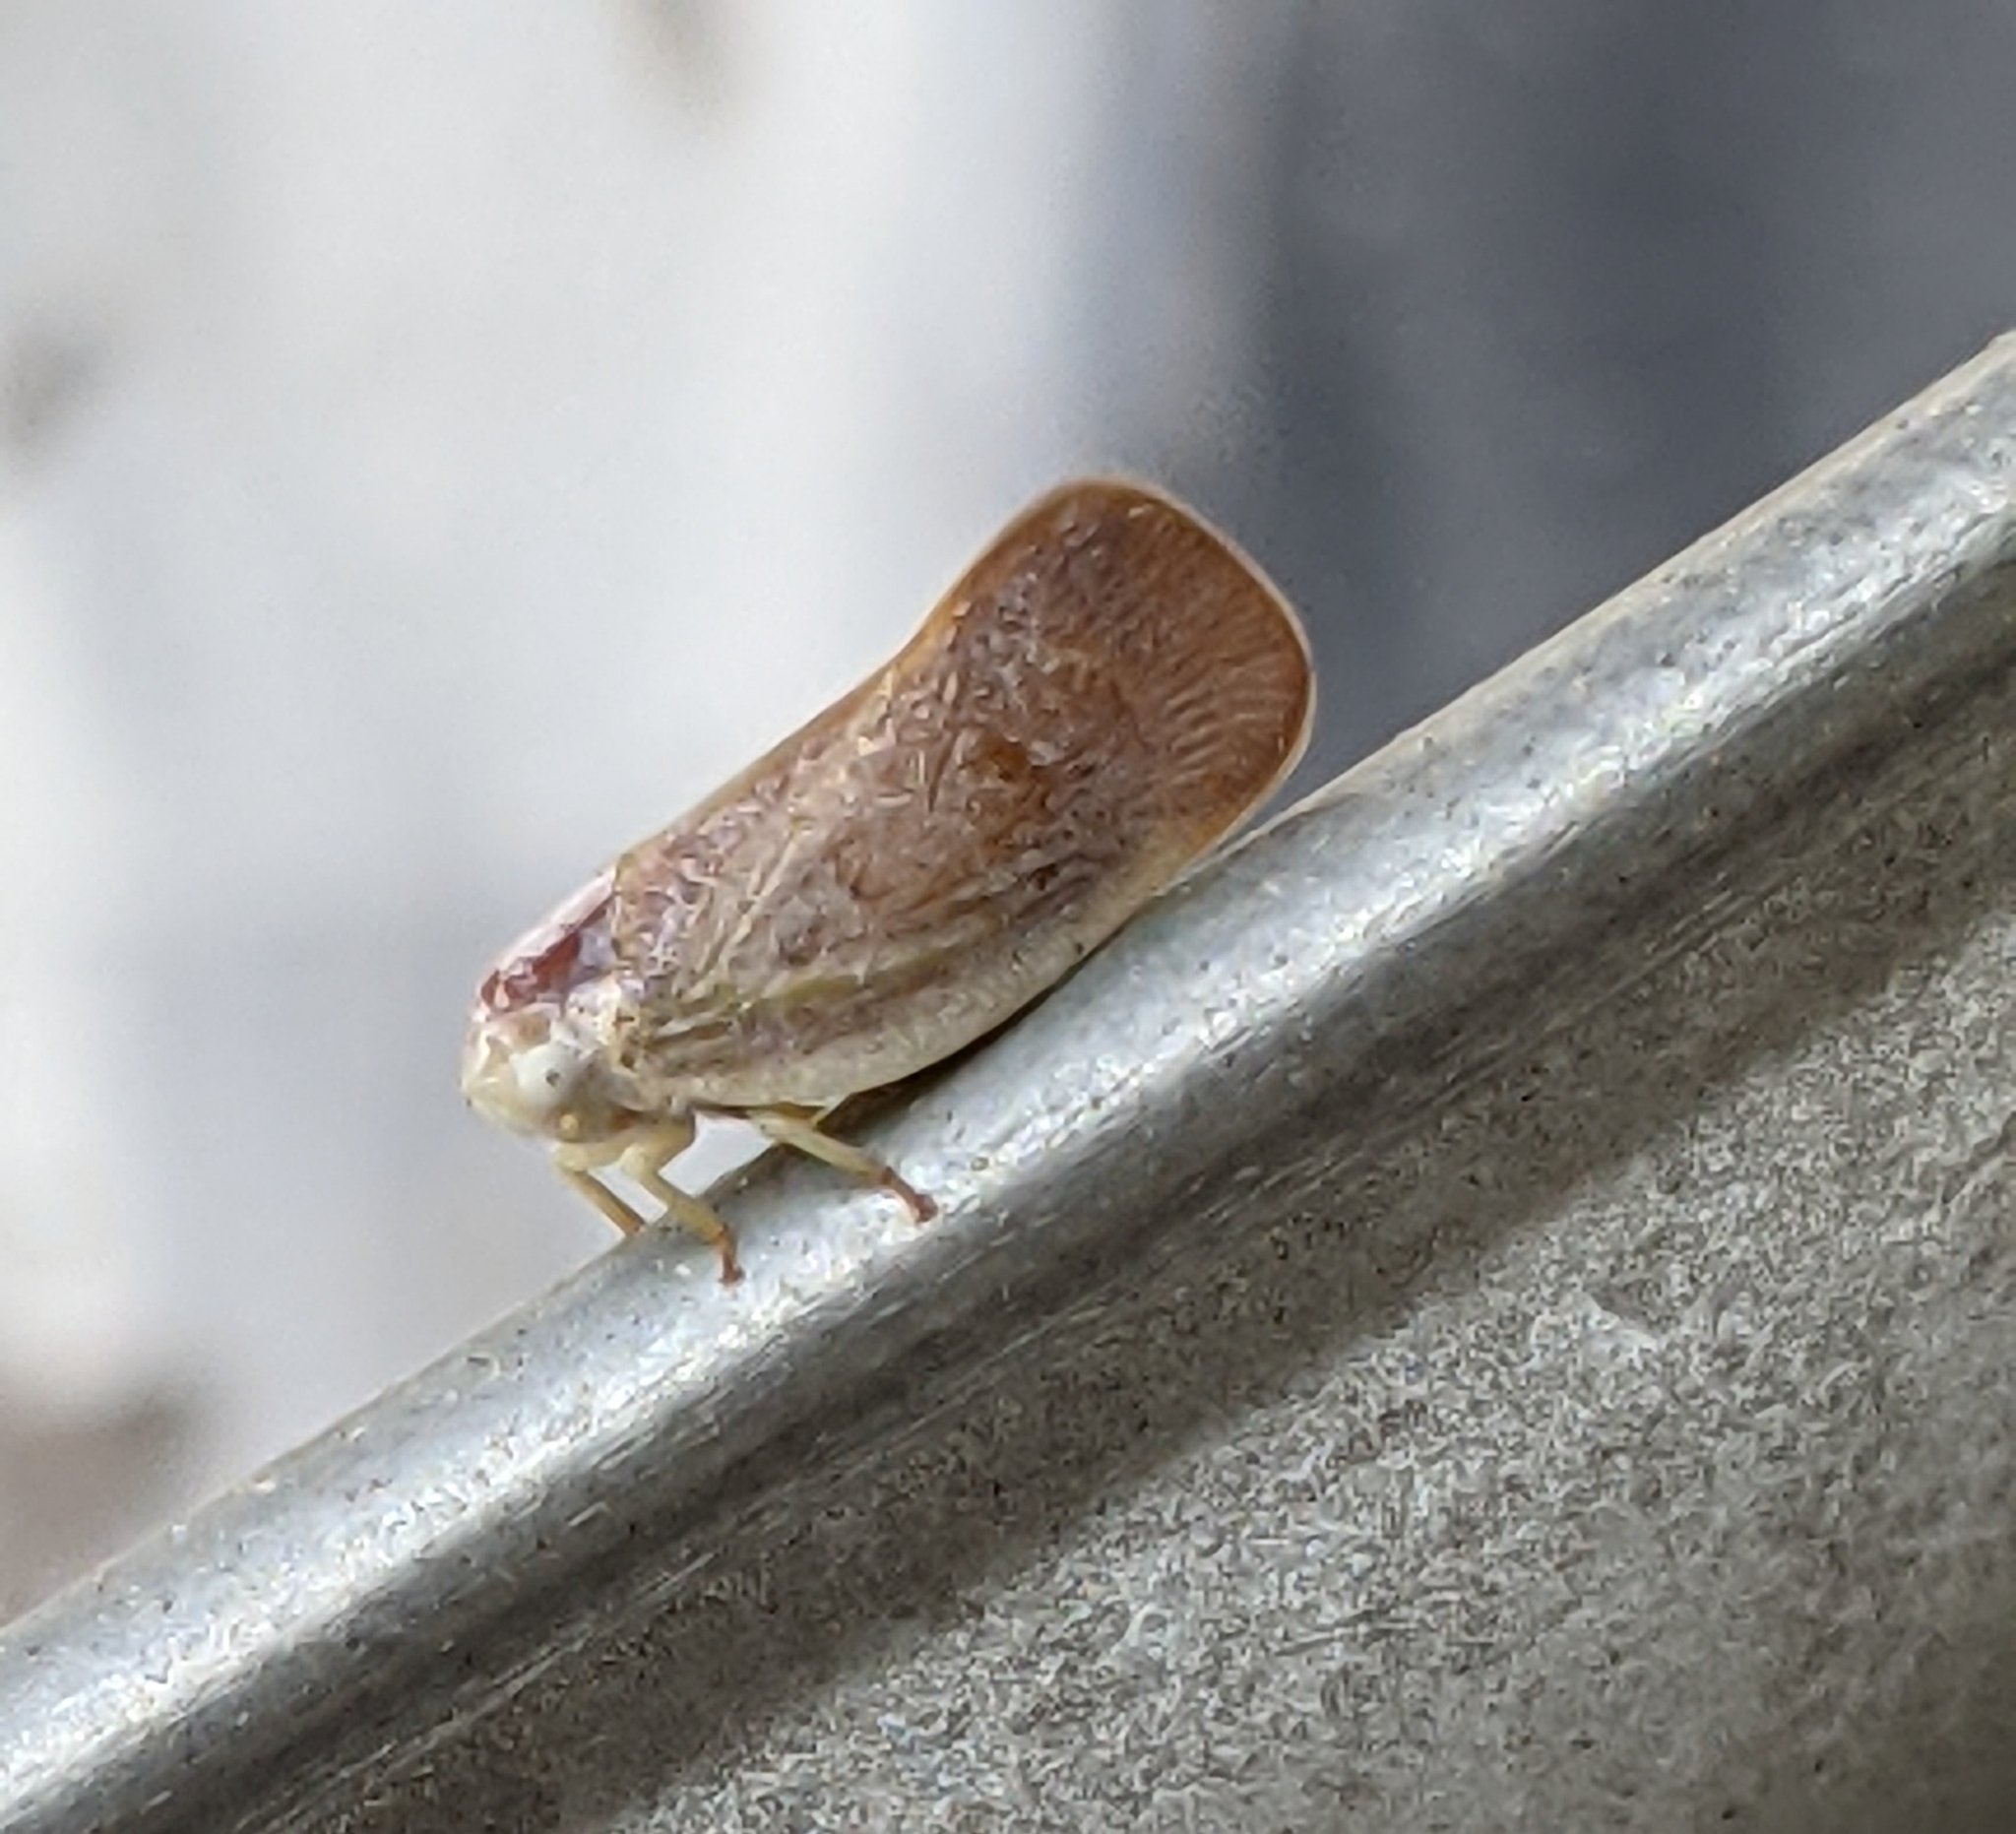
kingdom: Animalia
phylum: Arthropoda
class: Insecta
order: Hemiptera
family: Flatidae
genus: Flatormenis
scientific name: Flatormenis saucia
